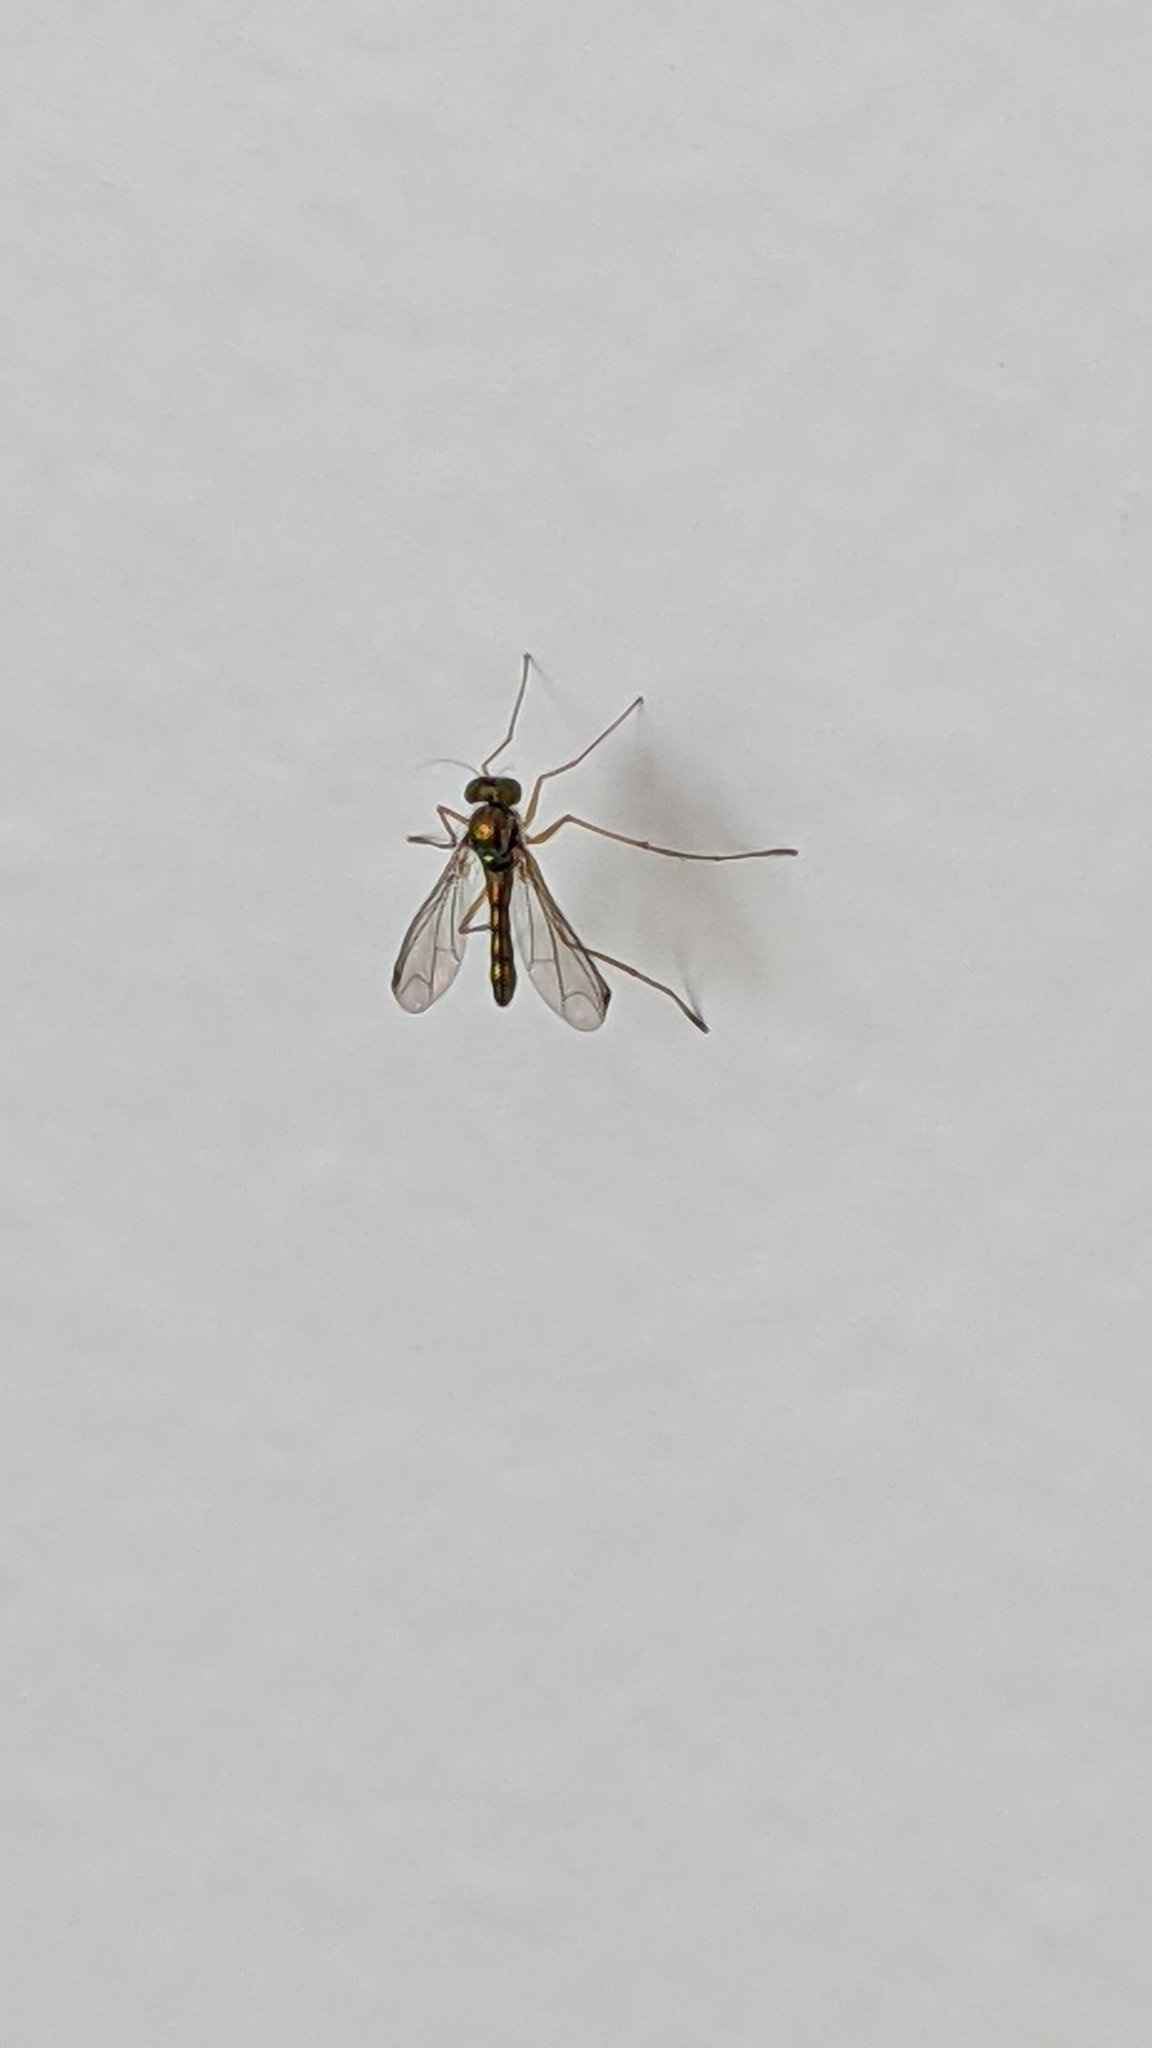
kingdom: Animalia
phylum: Arthropoda
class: Insecta
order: Diptera
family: Dolichopodidae
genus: Parentia
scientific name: Parentia anomalicosta
